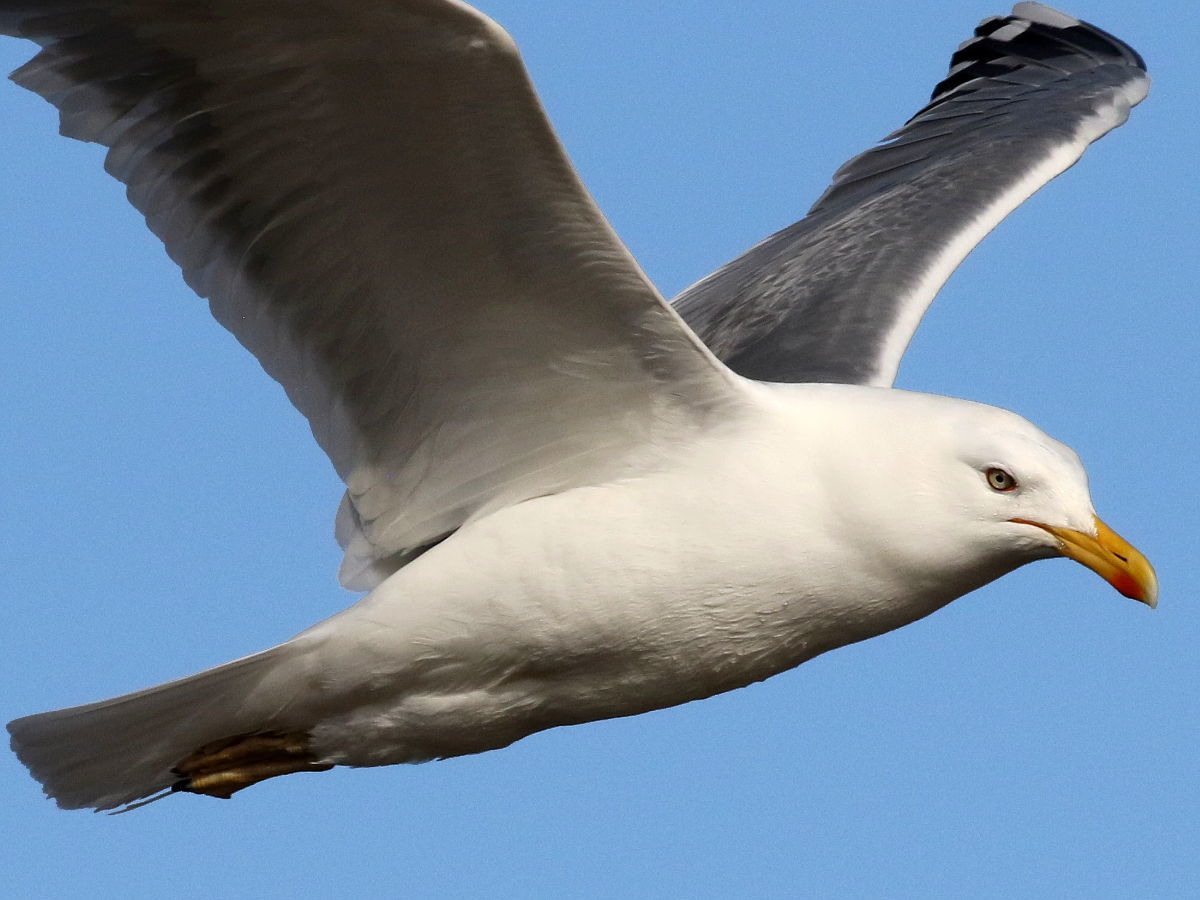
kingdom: Animalia
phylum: Chordata
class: Aves
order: Charadriiformes
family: Laridae
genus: Larus
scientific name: Larus argentatus
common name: Herring gull
